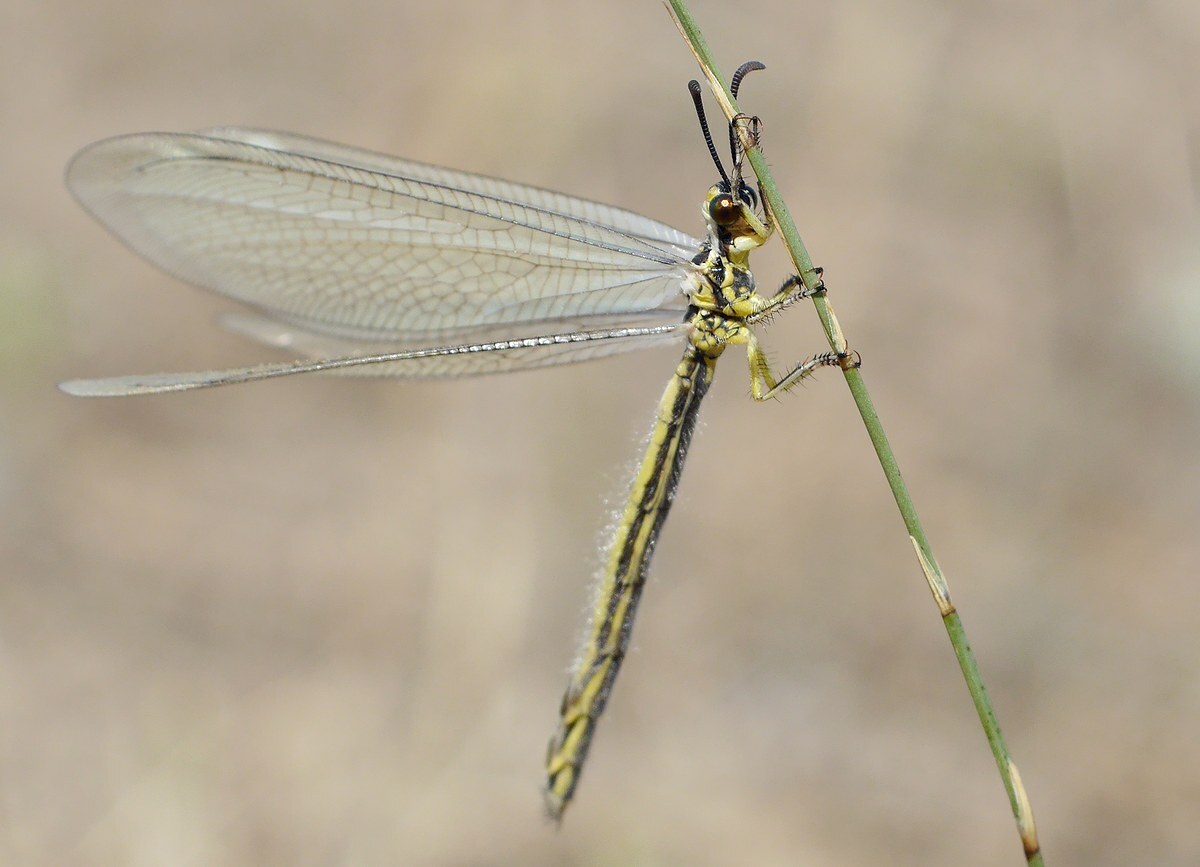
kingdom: Animalia
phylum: Arthropoda
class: Insecta
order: Neuroptera
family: Myrmeleontidae
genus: Myrmecaelurus
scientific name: Myrmecaelurus trigrammus
